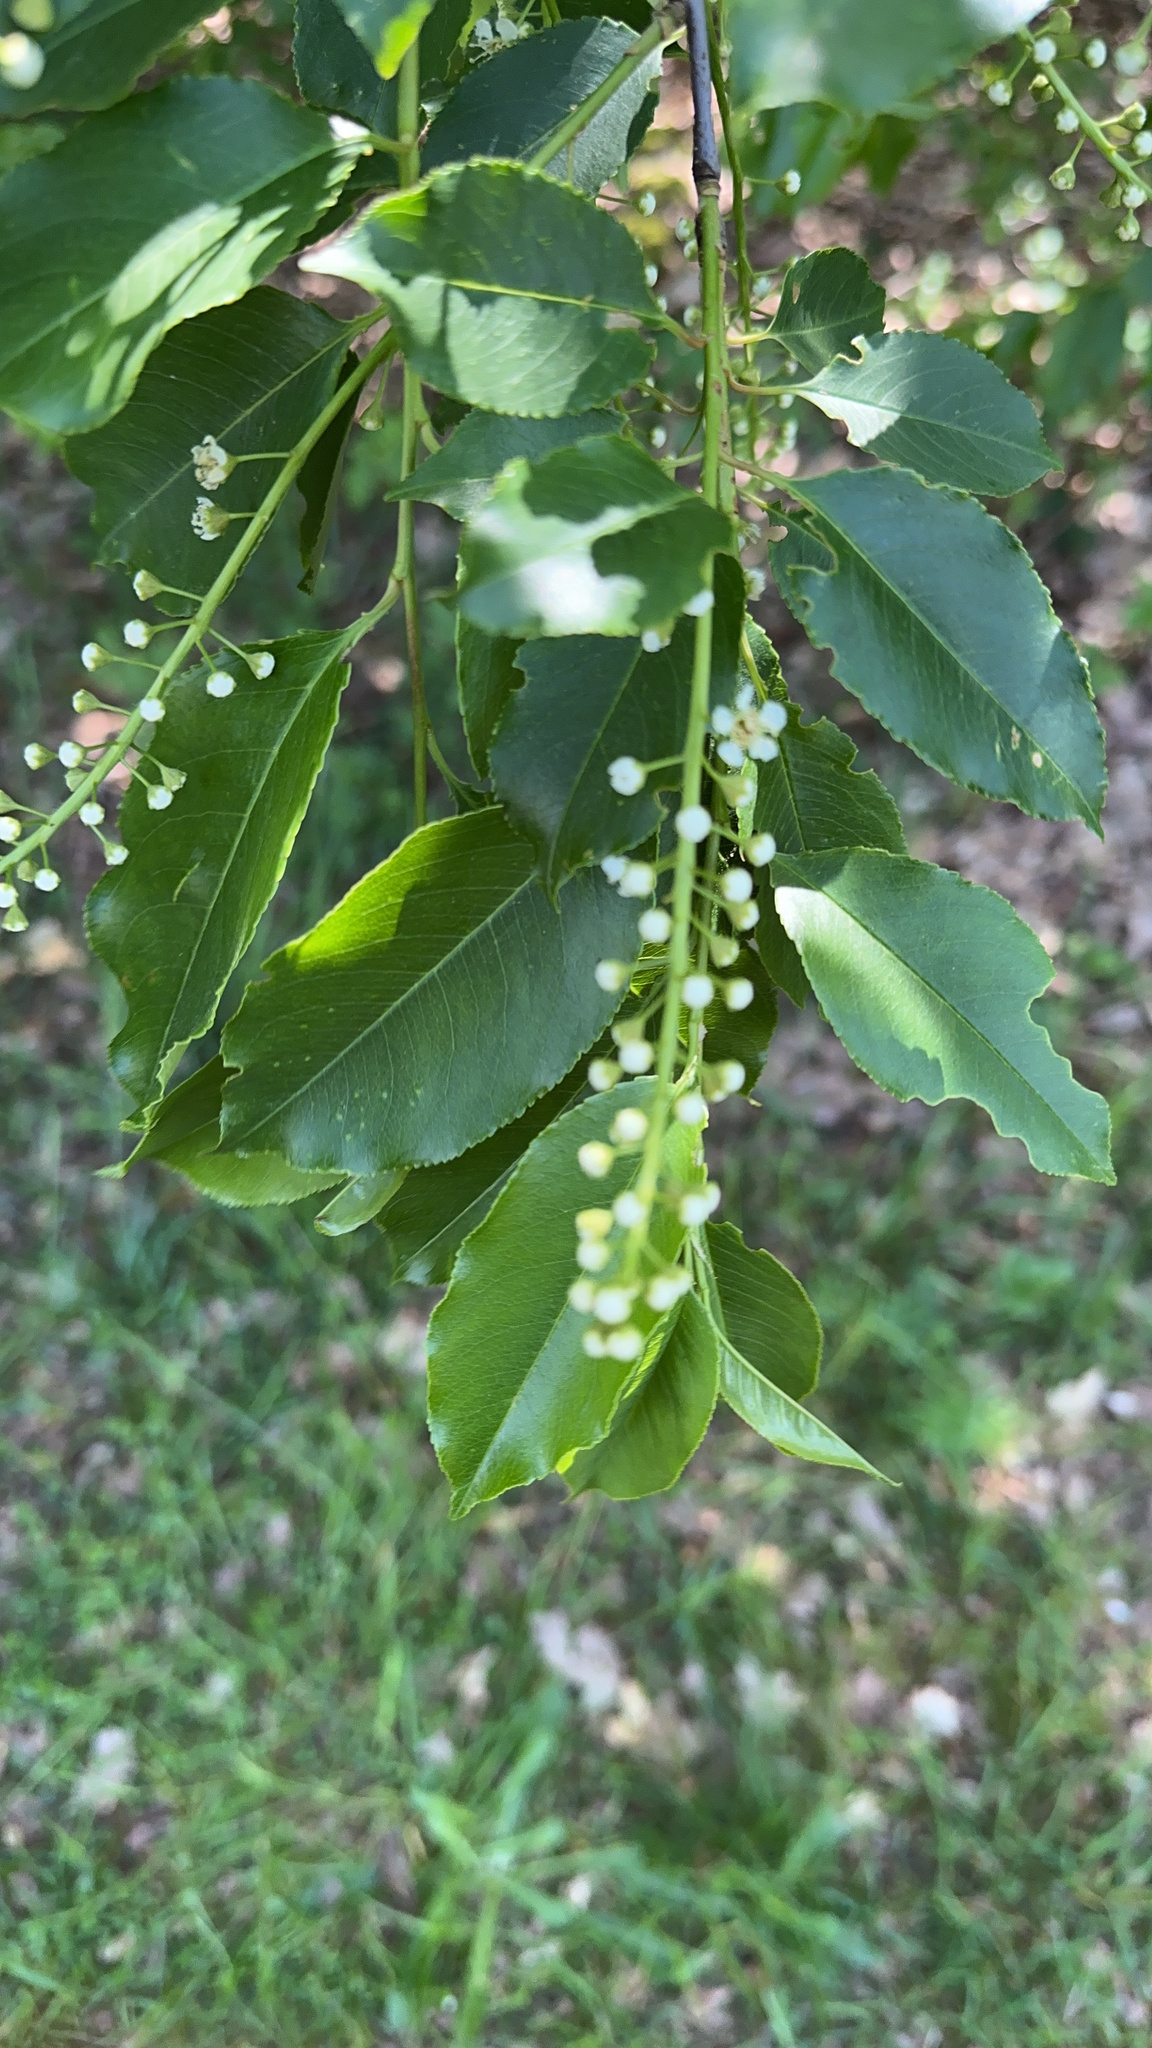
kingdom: Plantae
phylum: Tracheophyta
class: Magnoliopsida
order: Rosales
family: Rosaceae
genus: Prunus
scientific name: Prunus serotina
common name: Black cherry
